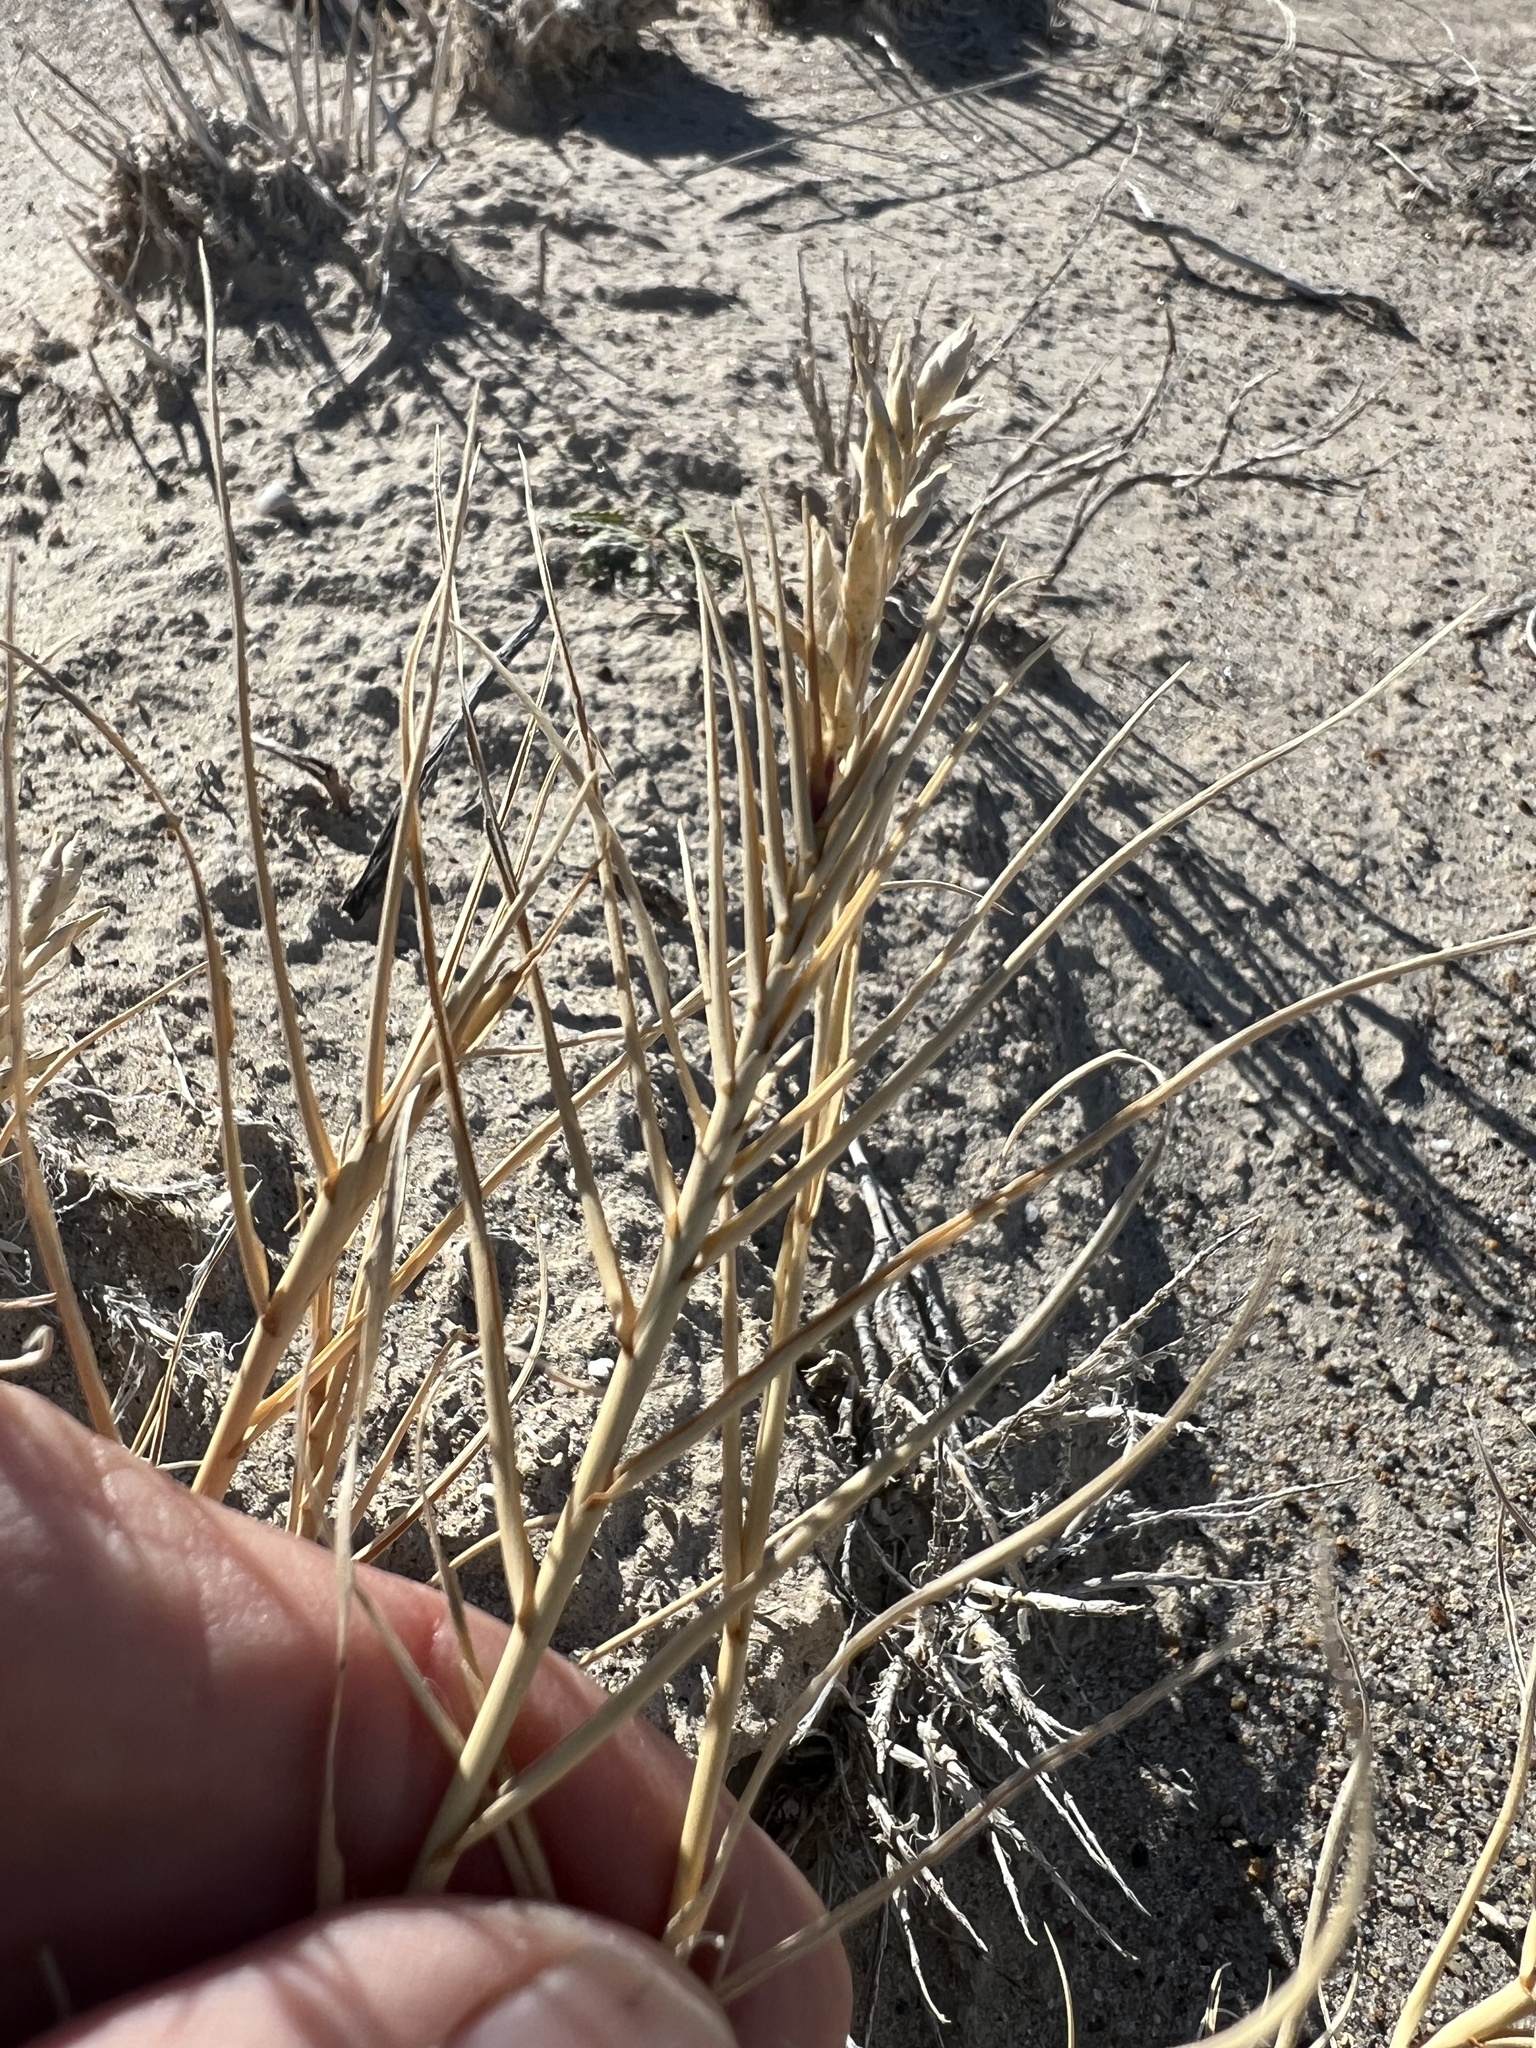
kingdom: Plantae
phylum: Tracheophyta
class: Liliopsida
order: Poales
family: Poaceae
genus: Distichlis
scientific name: Distichlis spicata
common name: Saltgrass
